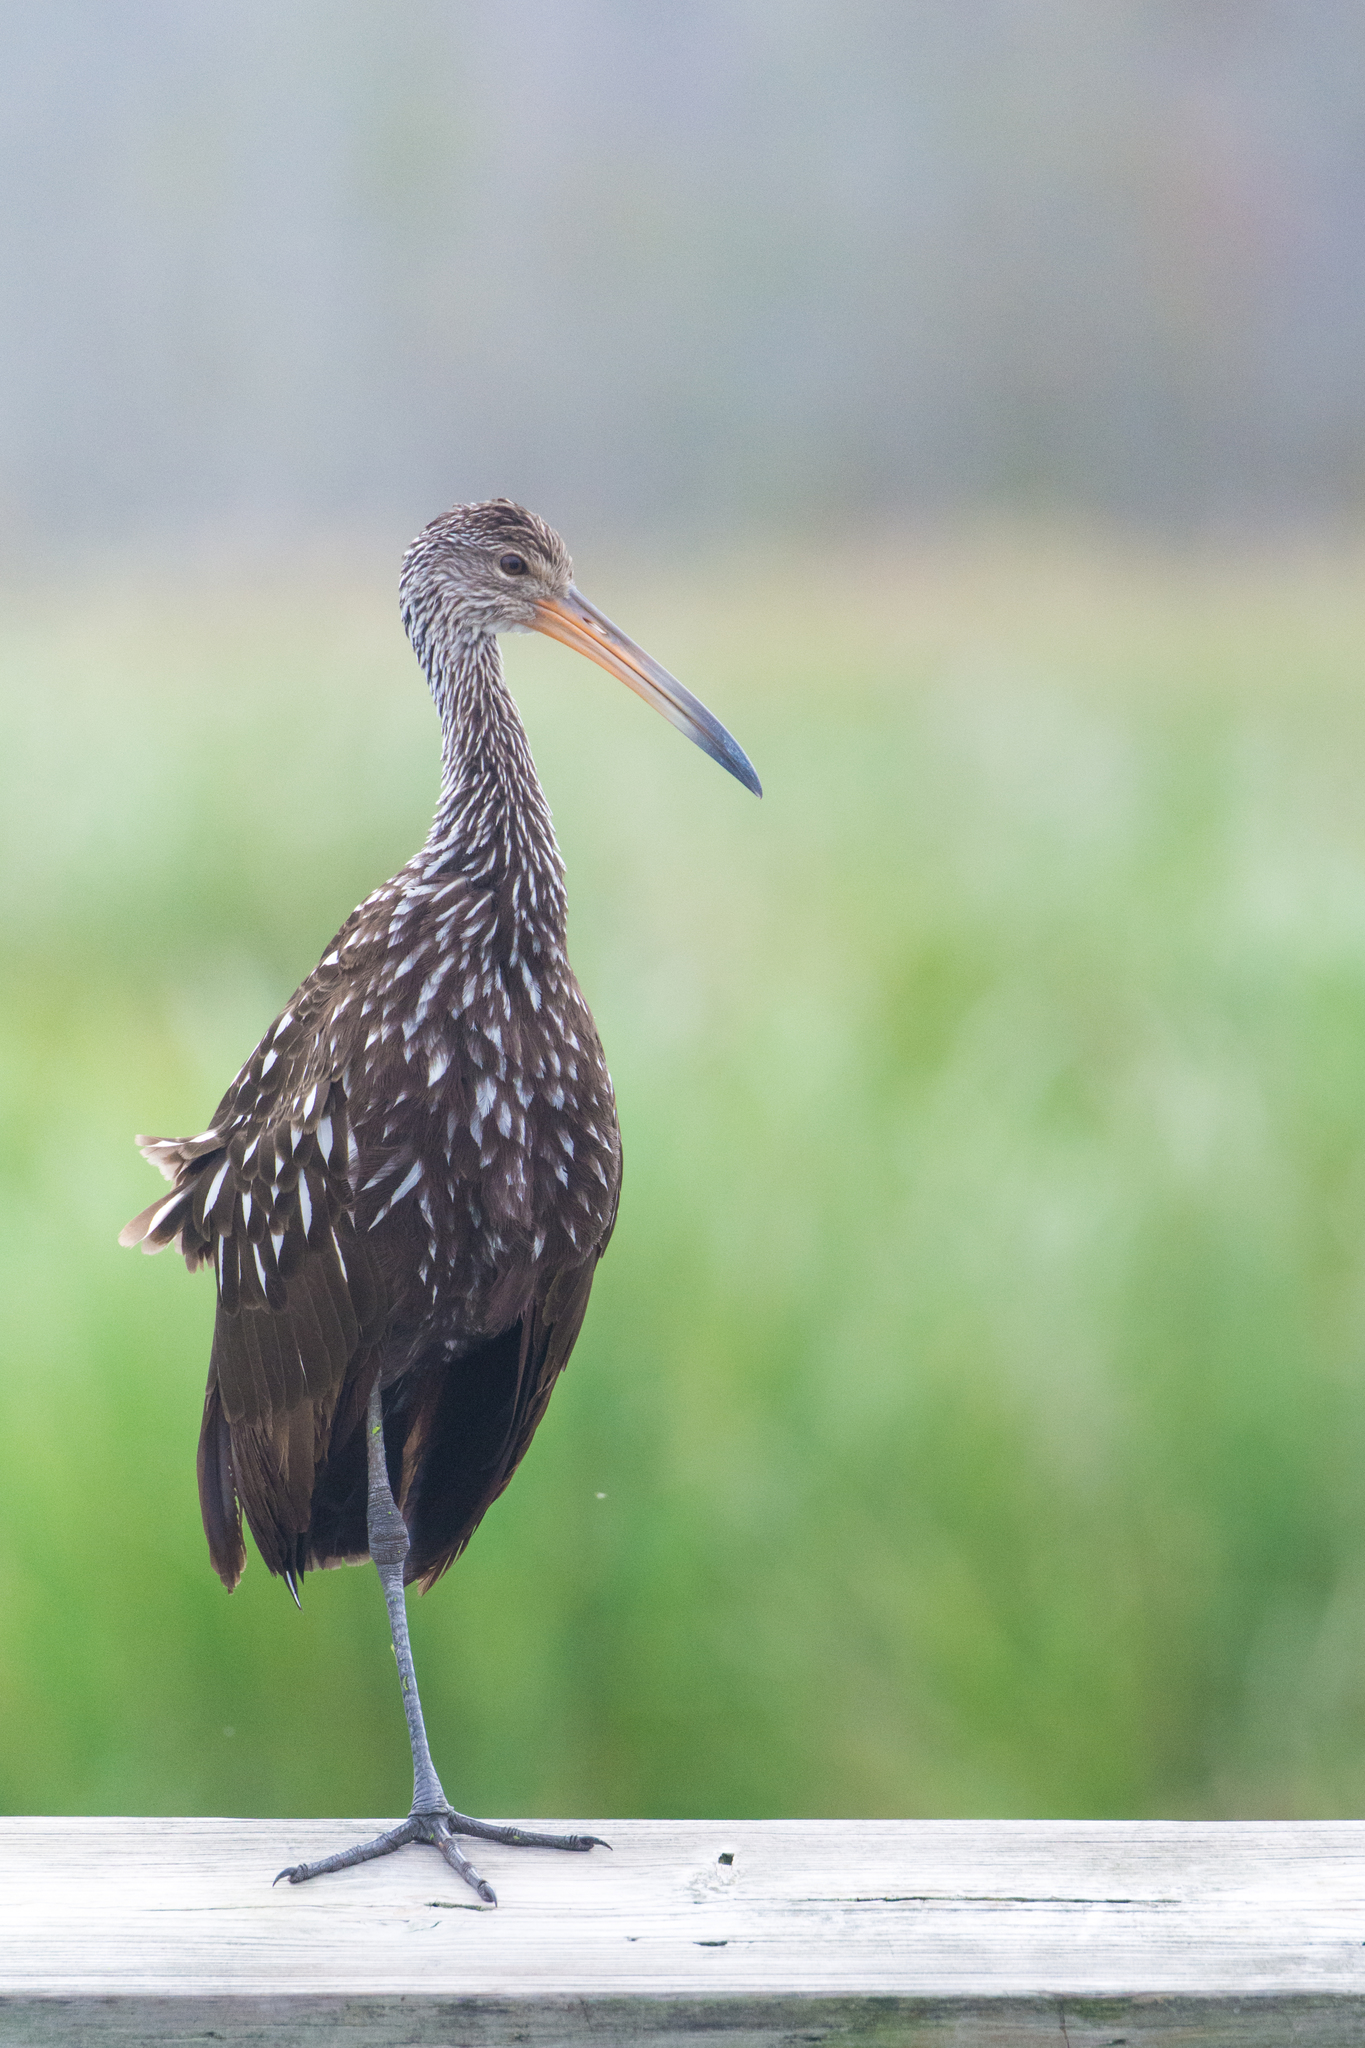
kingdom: Animalia
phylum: Chordata
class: Aves
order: Gruiformes
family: Aramidae
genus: Aramus
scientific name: Aramus guarauna
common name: Limpkin
